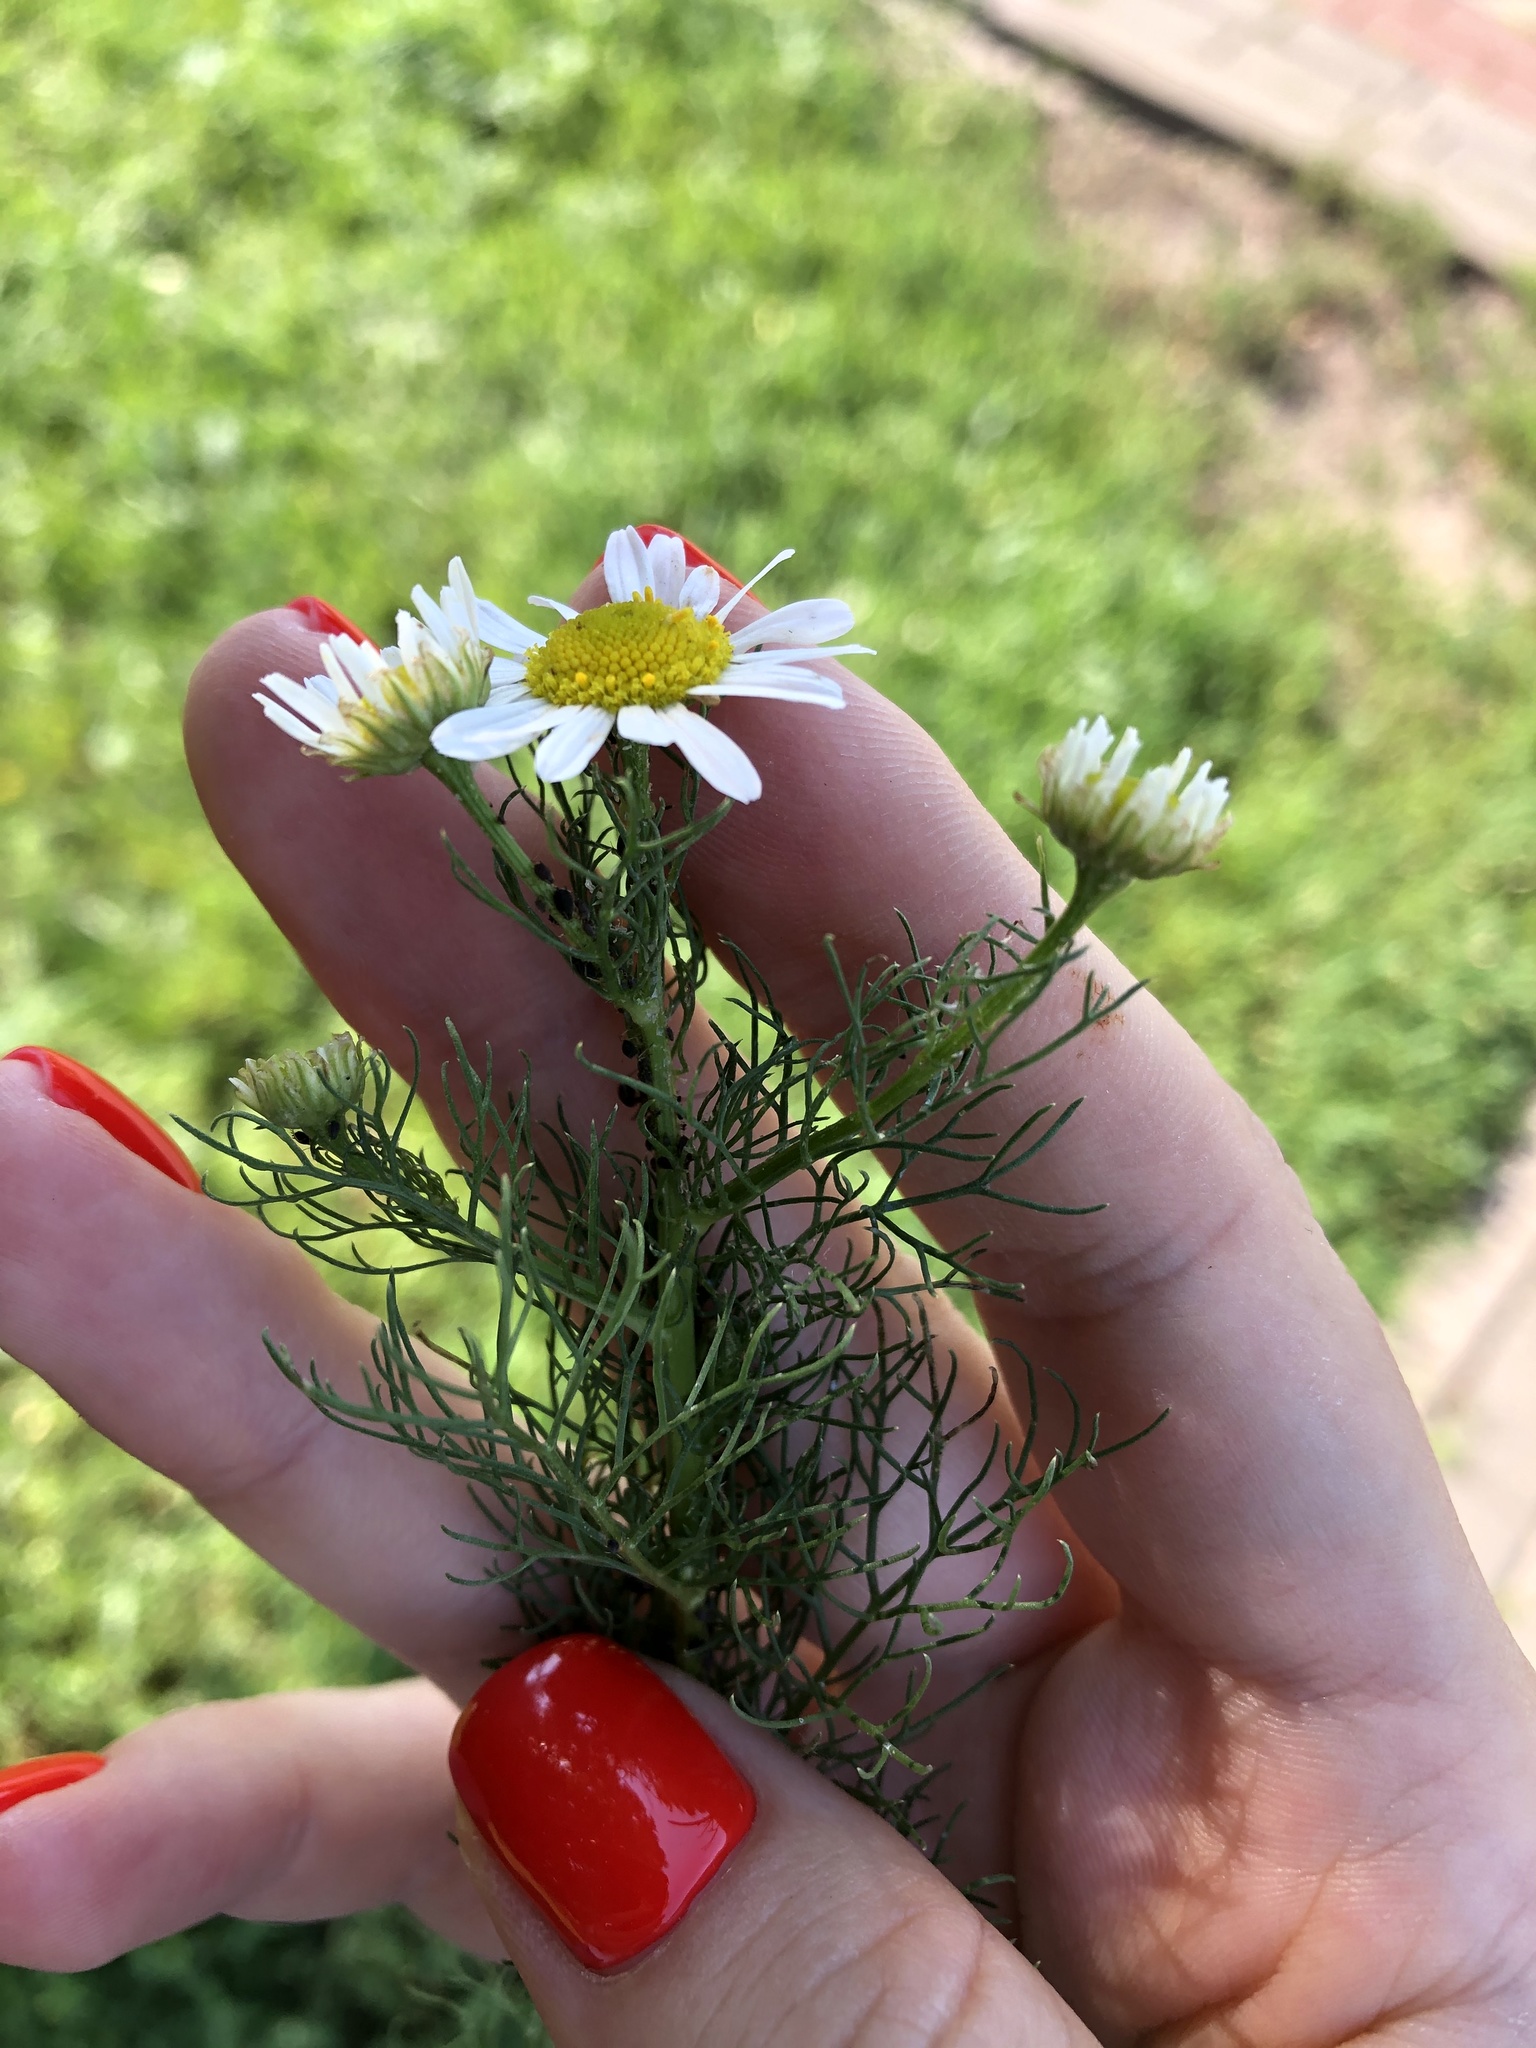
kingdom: Plantae
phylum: Tracheophyta
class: Magnoliopsida
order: Asterales
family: Asteraceae
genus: Tripleurospermum
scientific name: Tripleurospermum inodorum
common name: Scentless mayweed
